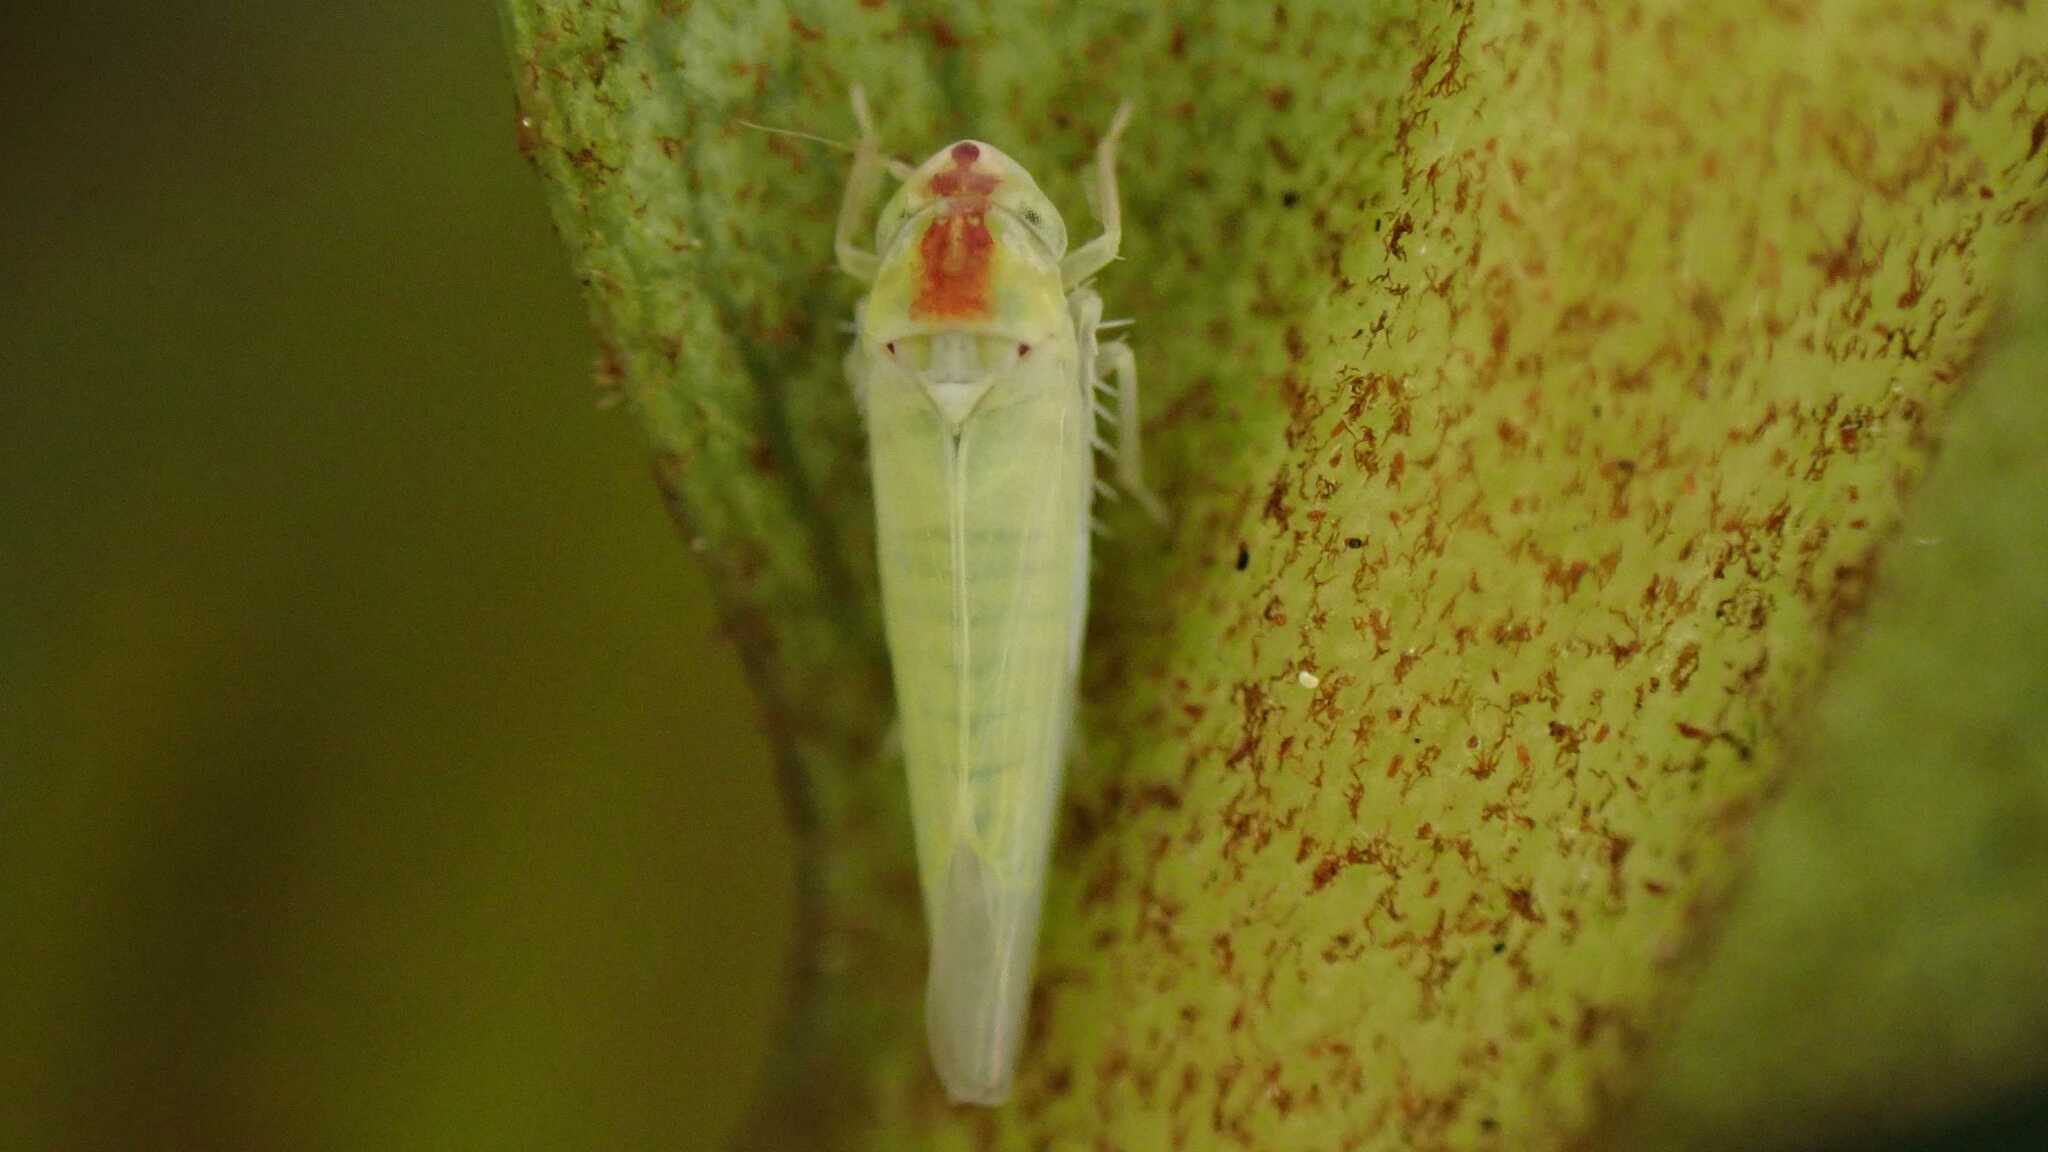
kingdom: Animalia
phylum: Arthropoda
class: Insecta
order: Hemiptera
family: Cicadellidae
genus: Zygina
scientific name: Zygina nivea
